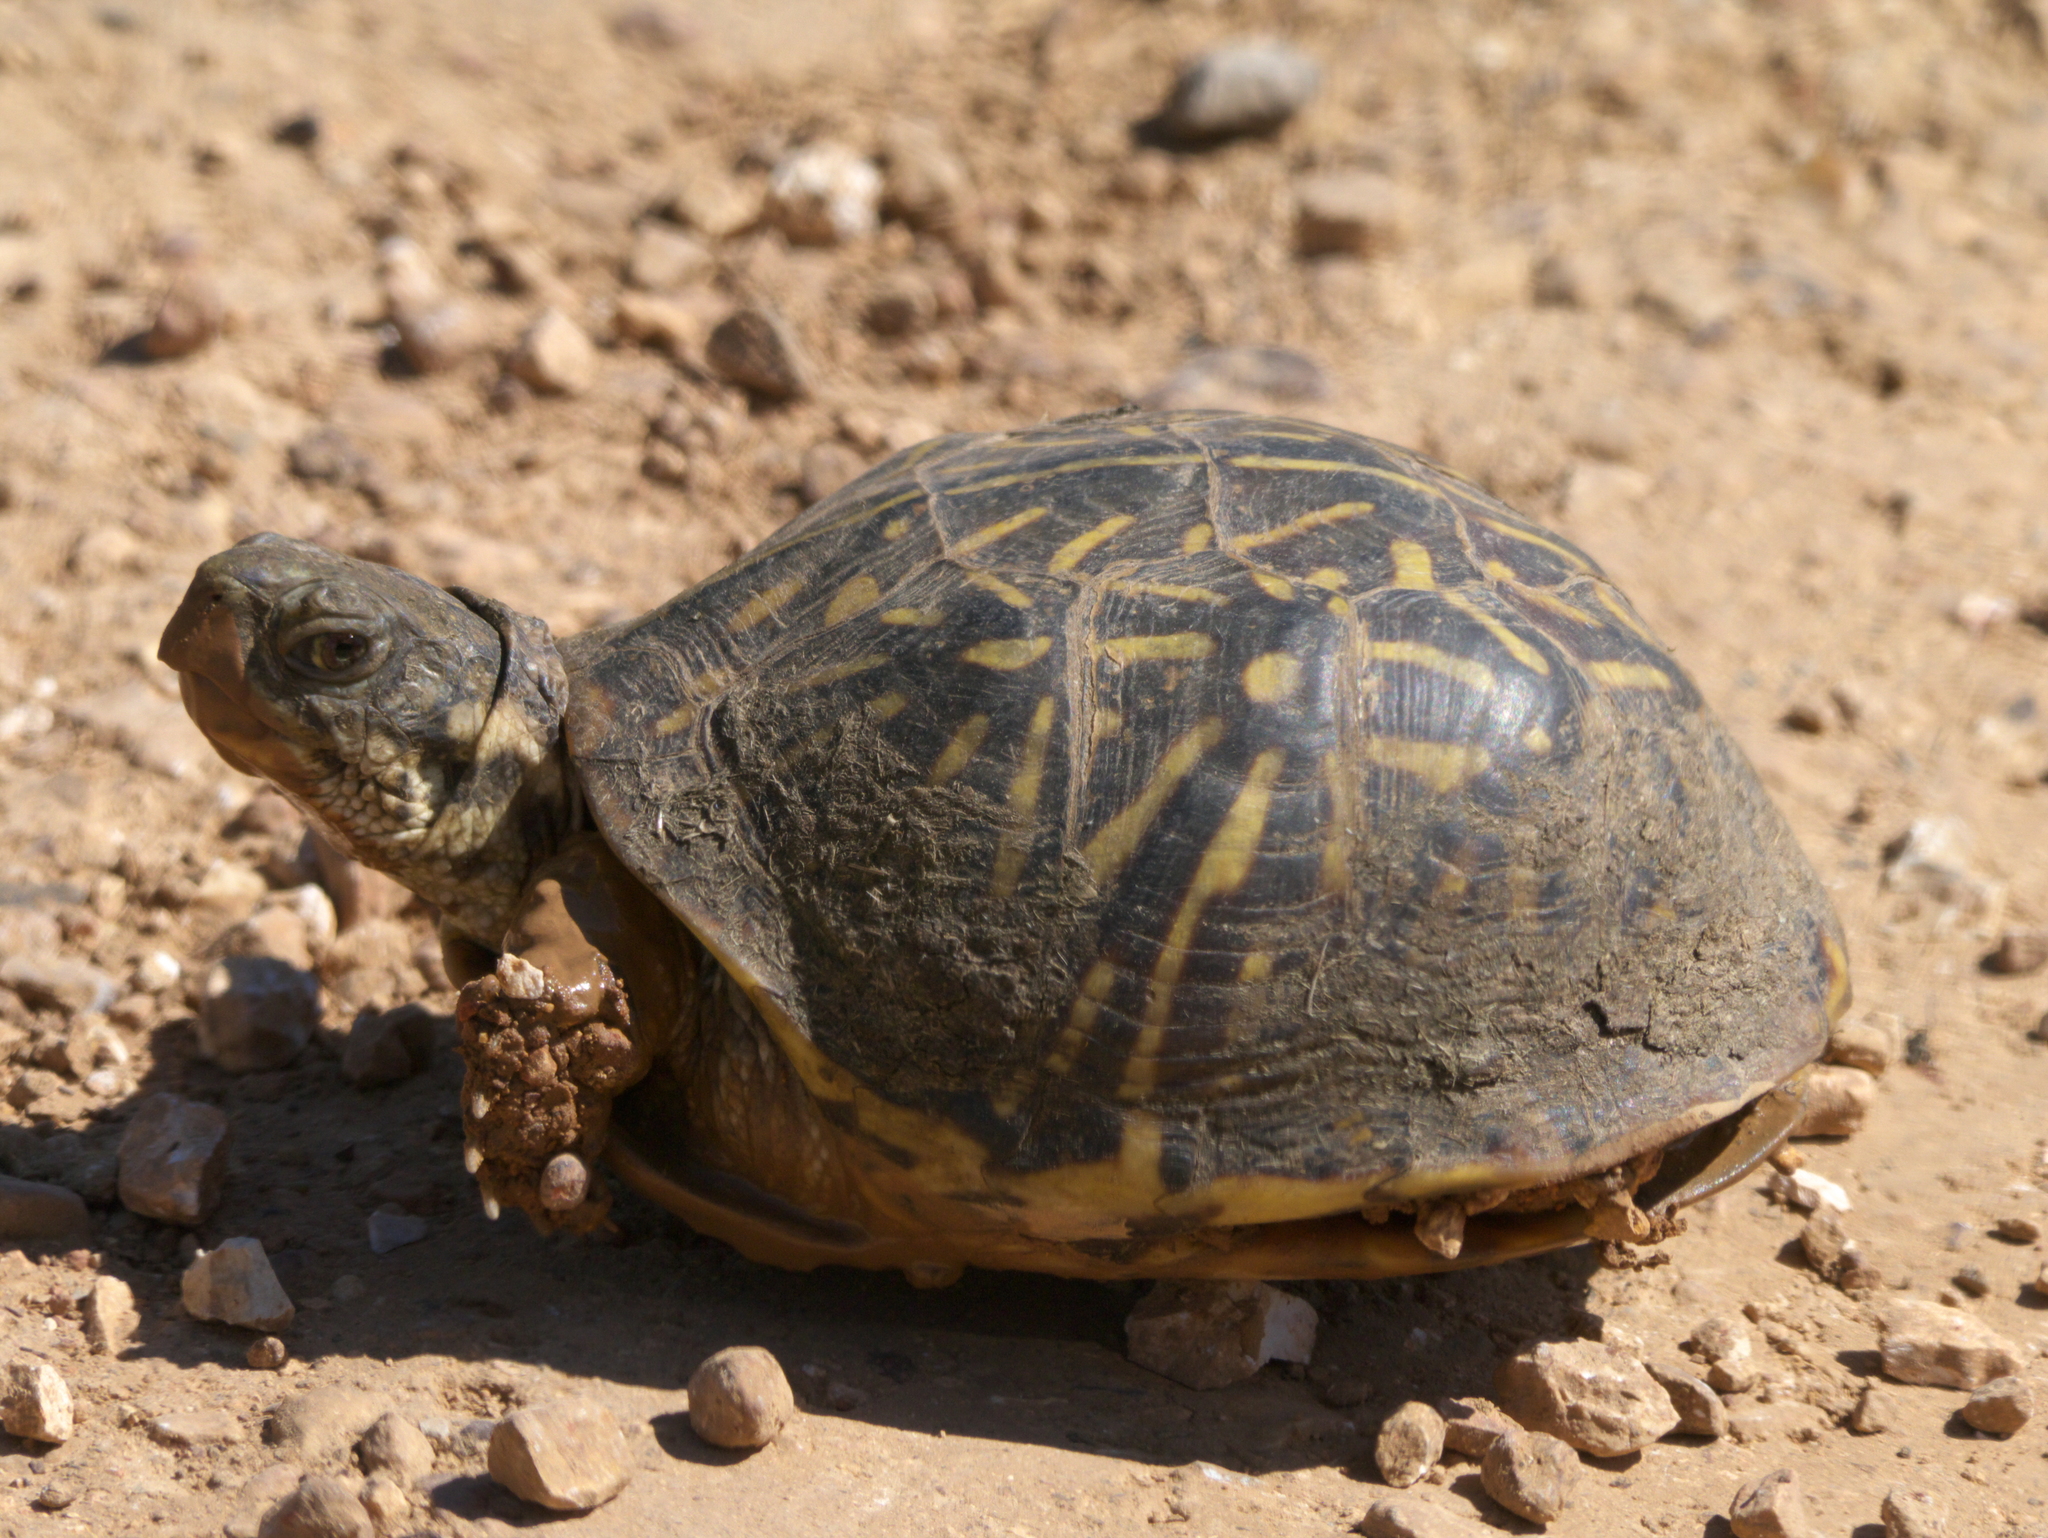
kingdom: Animalia
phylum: Chordata
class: Testudines
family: Emydidae
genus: Terrapene
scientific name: Terrapene ornata
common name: Western box turtle
